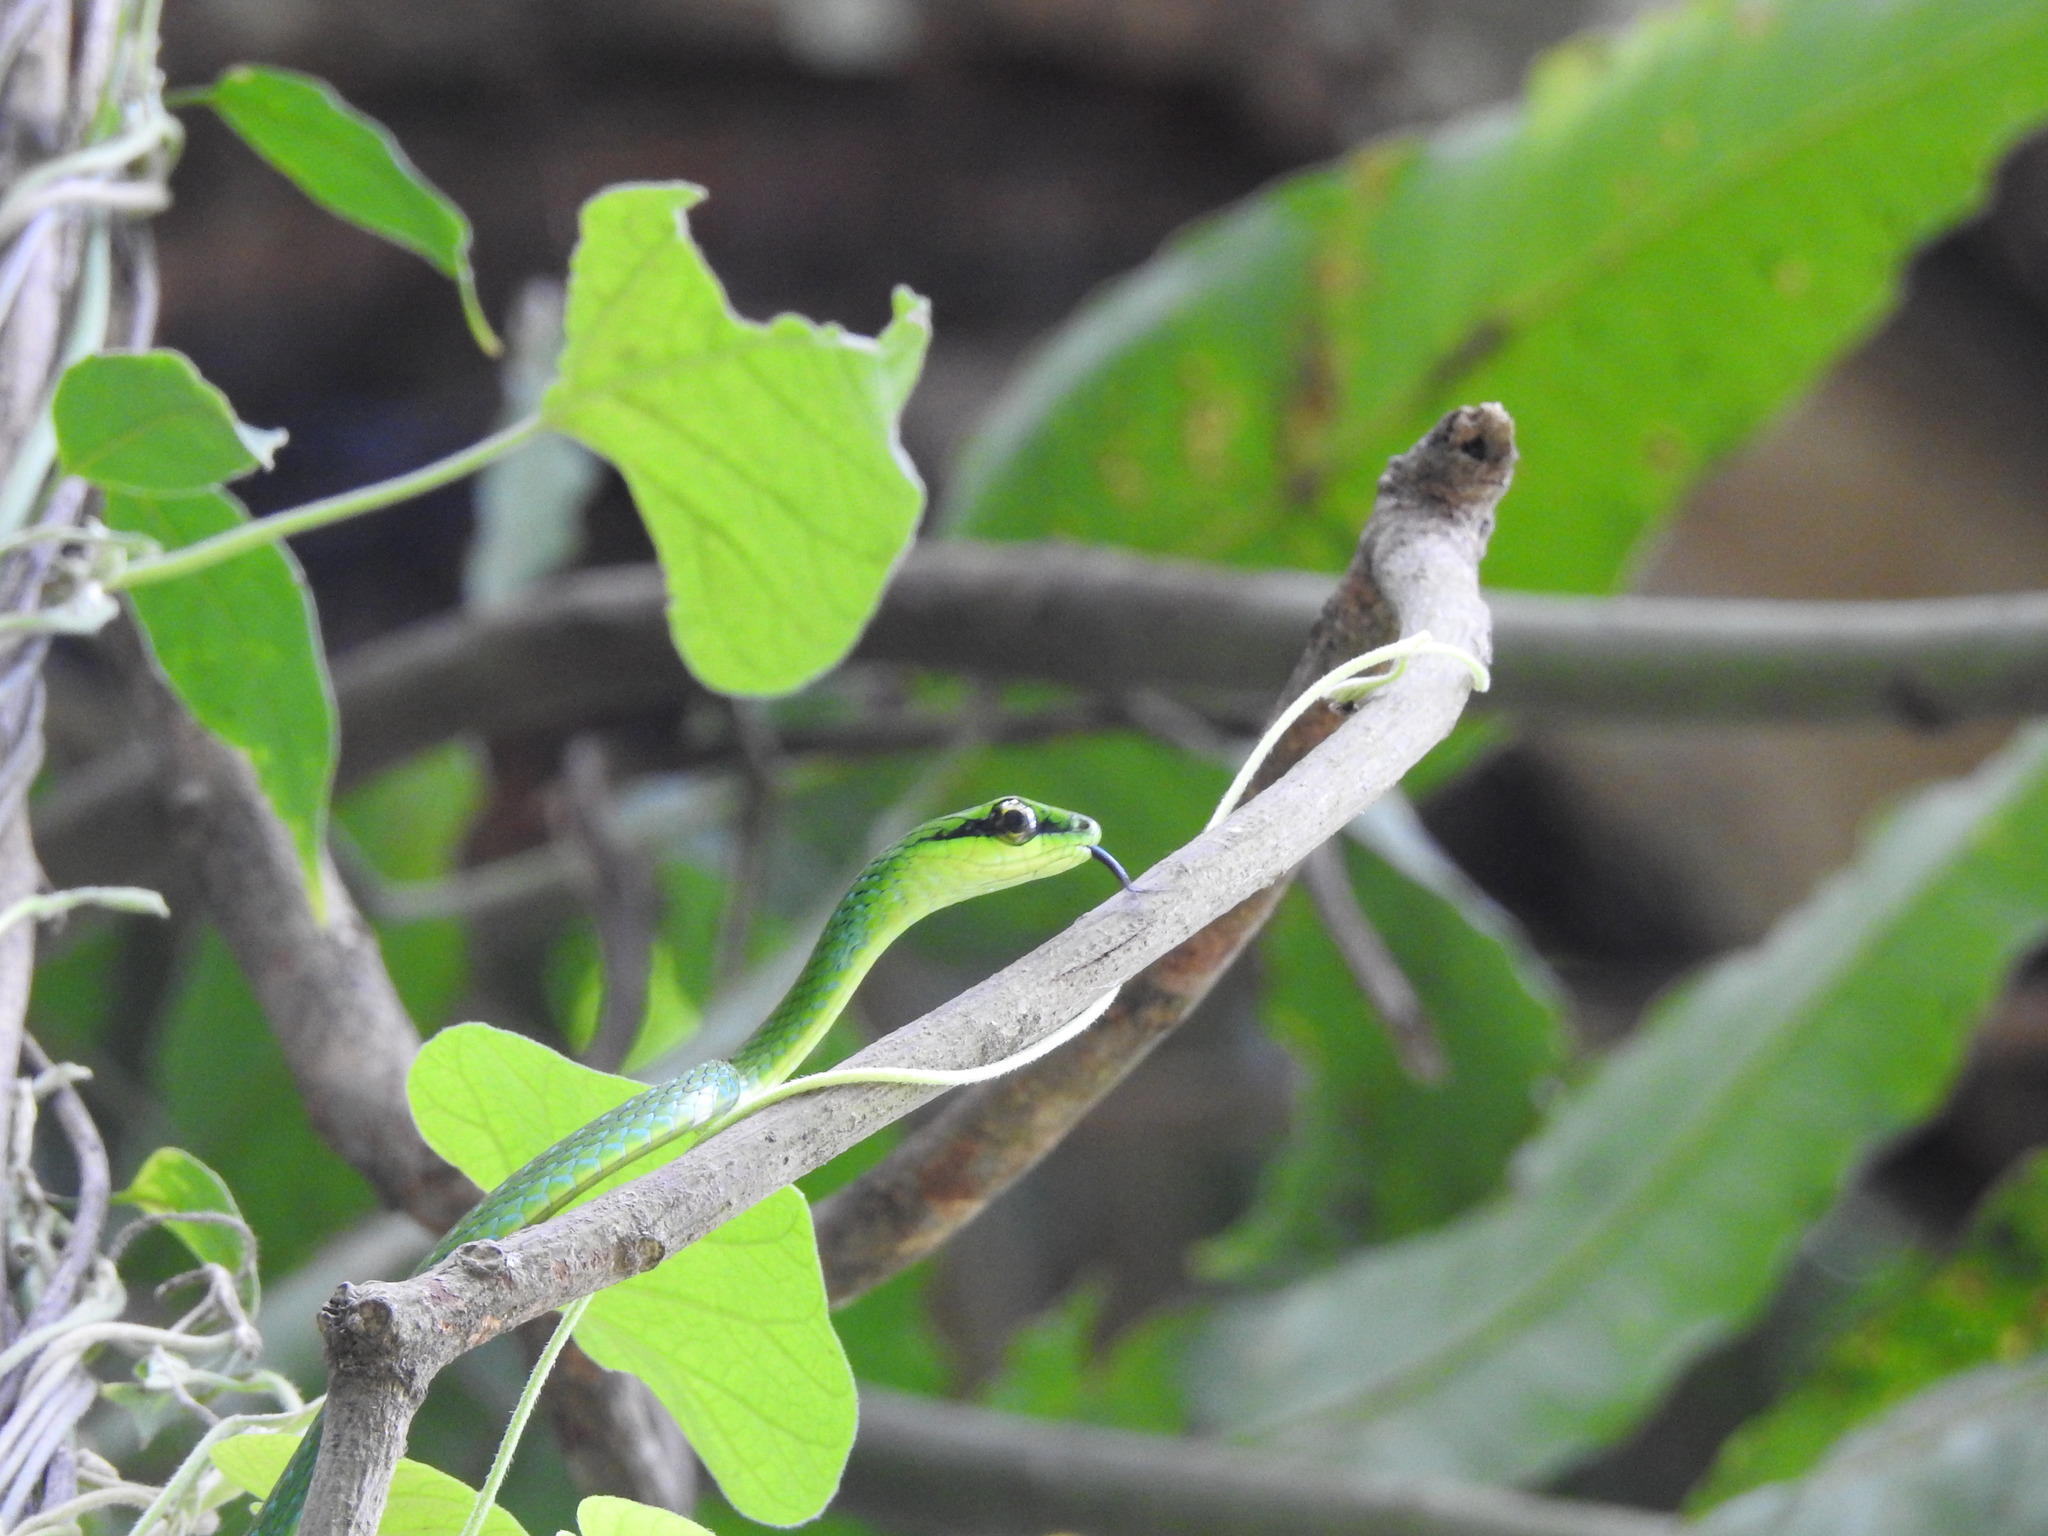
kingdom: Animalia
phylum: Chordata
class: Squamata
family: Colubridae
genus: Hapsidophrys
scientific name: Hapsidophrys smaragdinus
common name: Emerald snake
